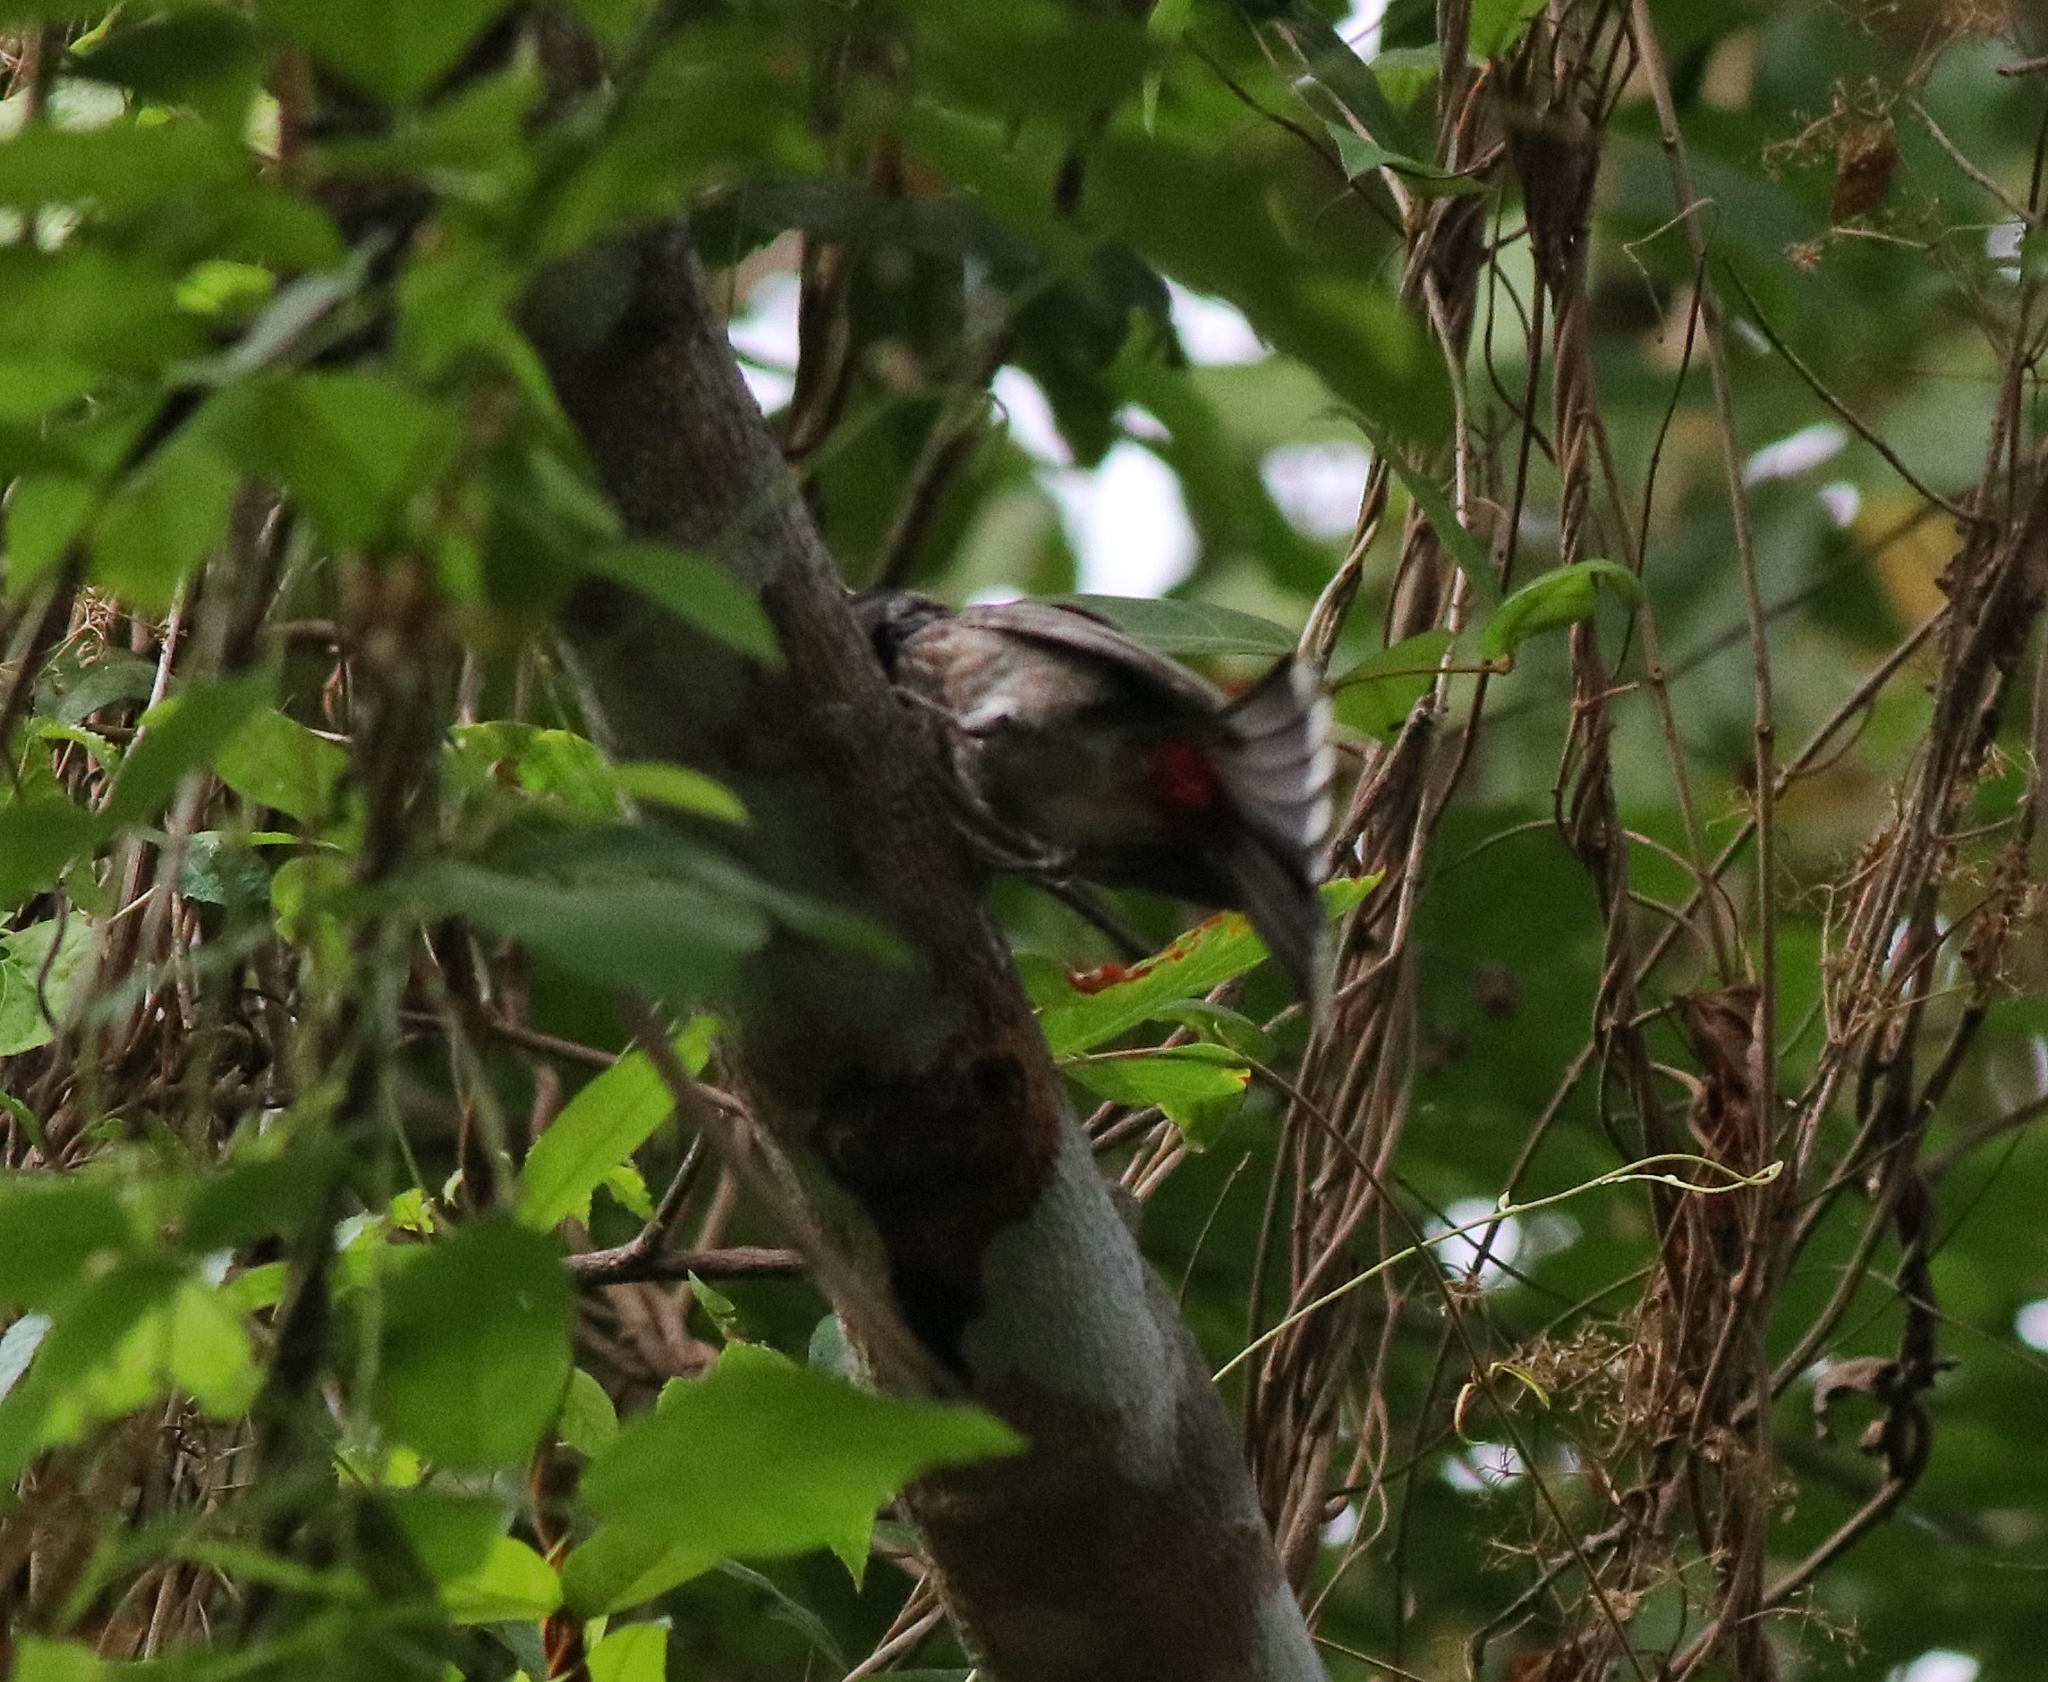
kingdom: Animalia
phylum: Chordata
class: Aves
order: Passeriformes
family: Pycnonotidae
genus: Pycnonotus
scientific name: Pycnonotus cafer
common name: Red-vented bulbul
